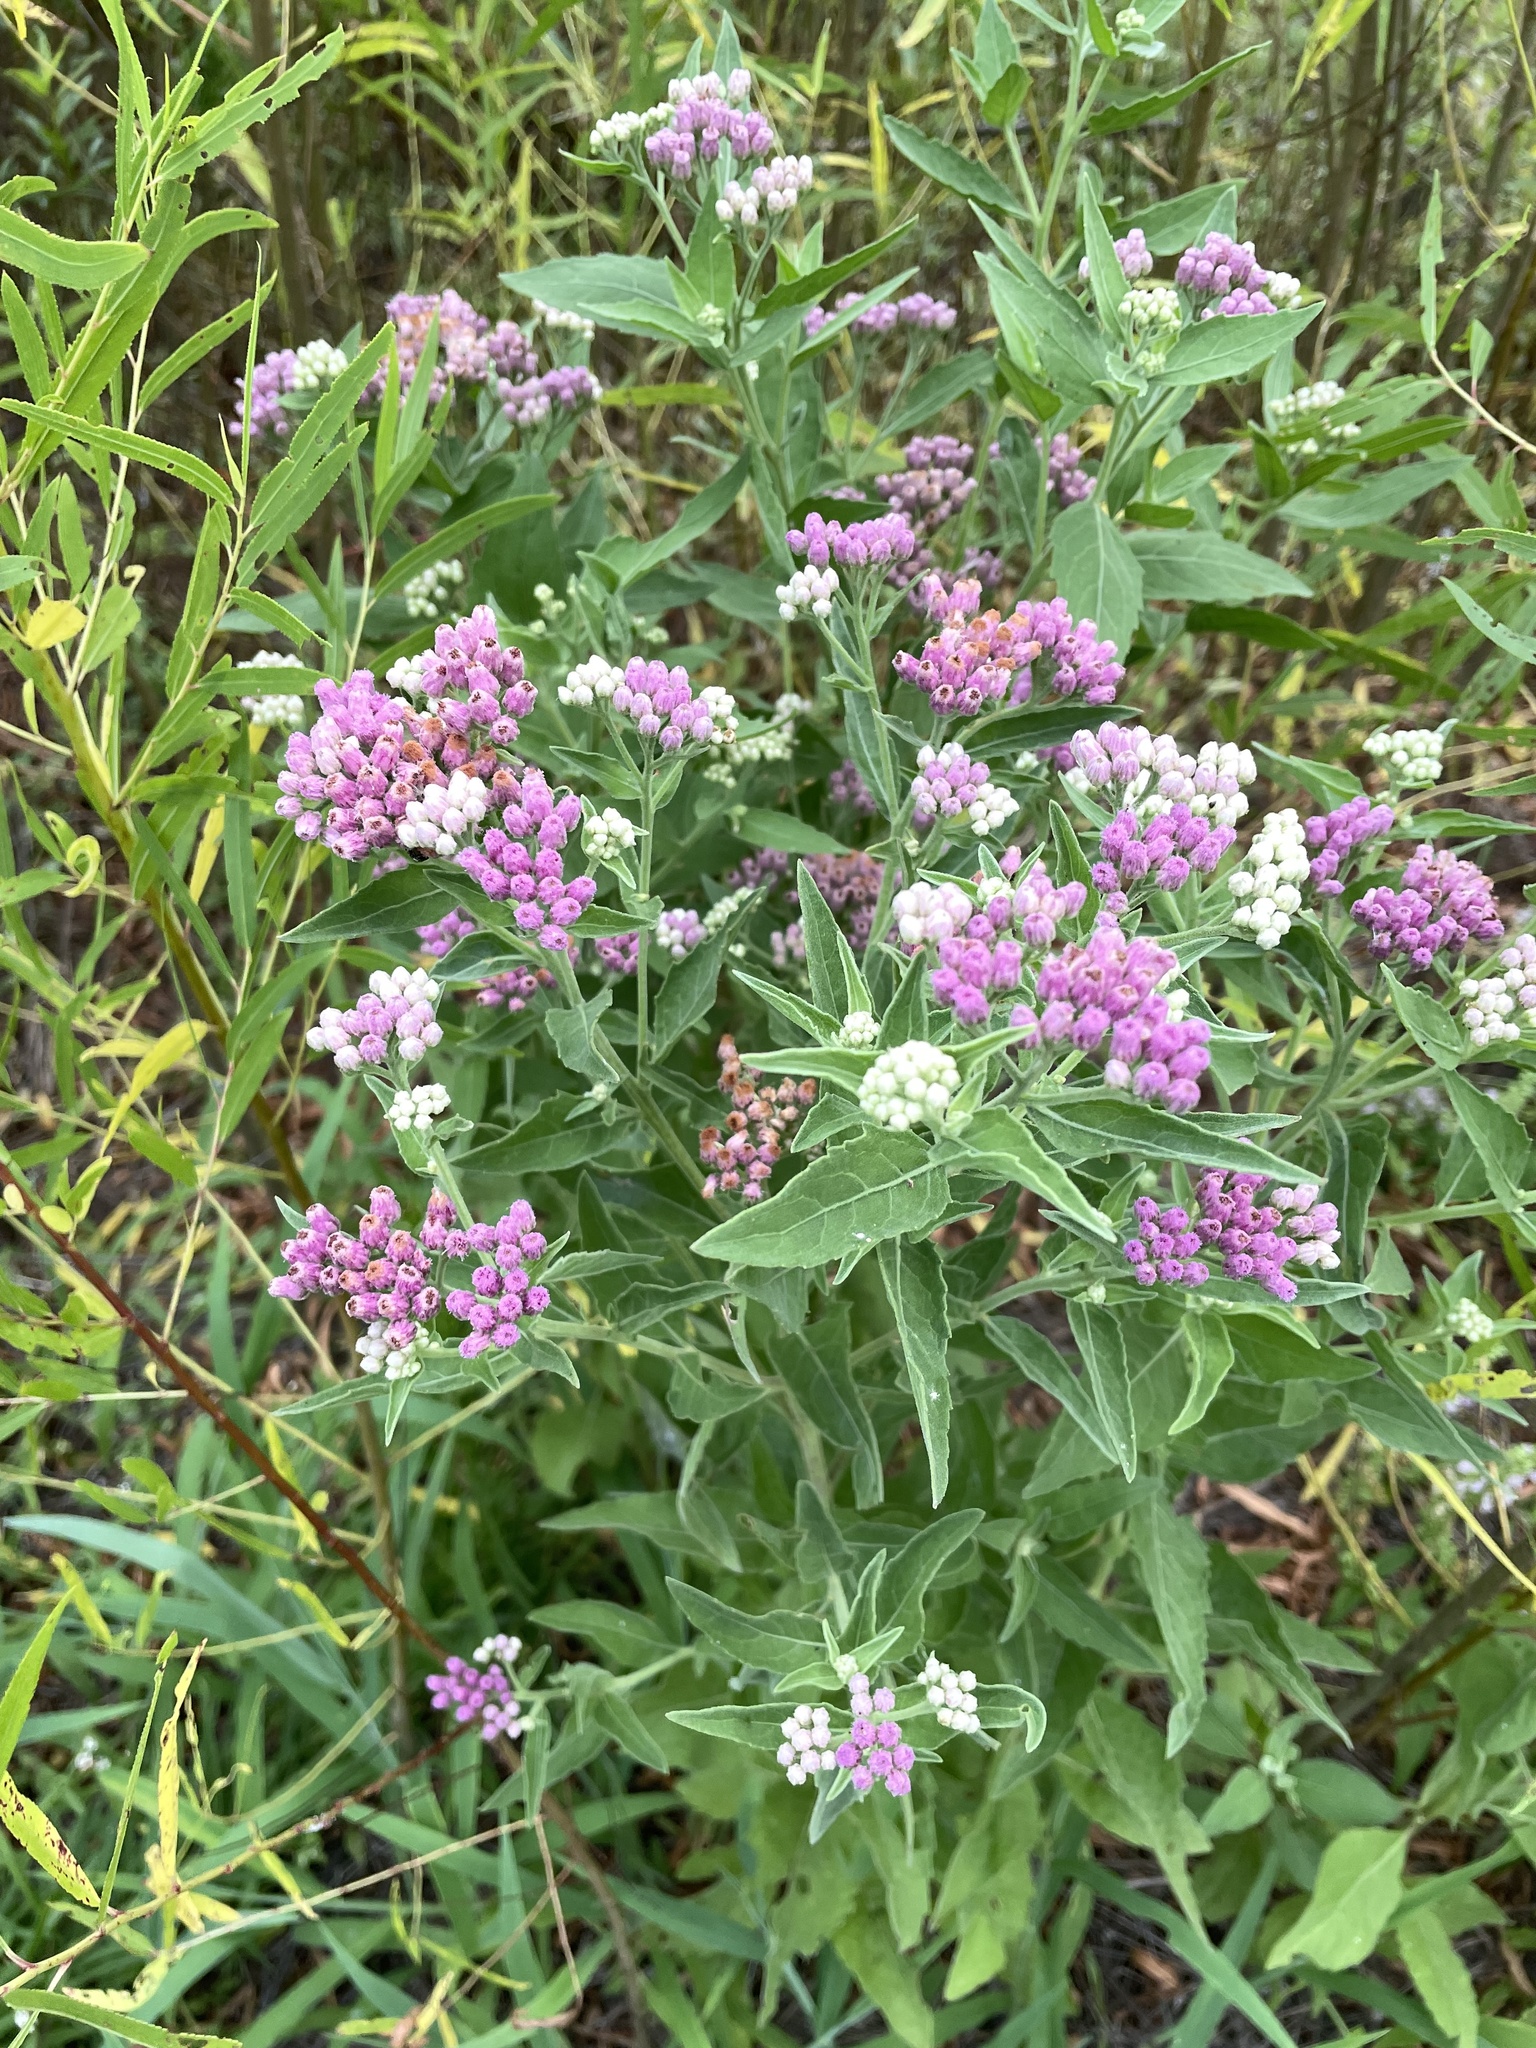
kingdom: Plantae
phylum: Tracheophyta
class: Magnoliopsida
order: Asterales
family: Asteraceae
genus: Pluchea
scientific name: Pluchea odorata
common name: Saltmarsh fleabane
